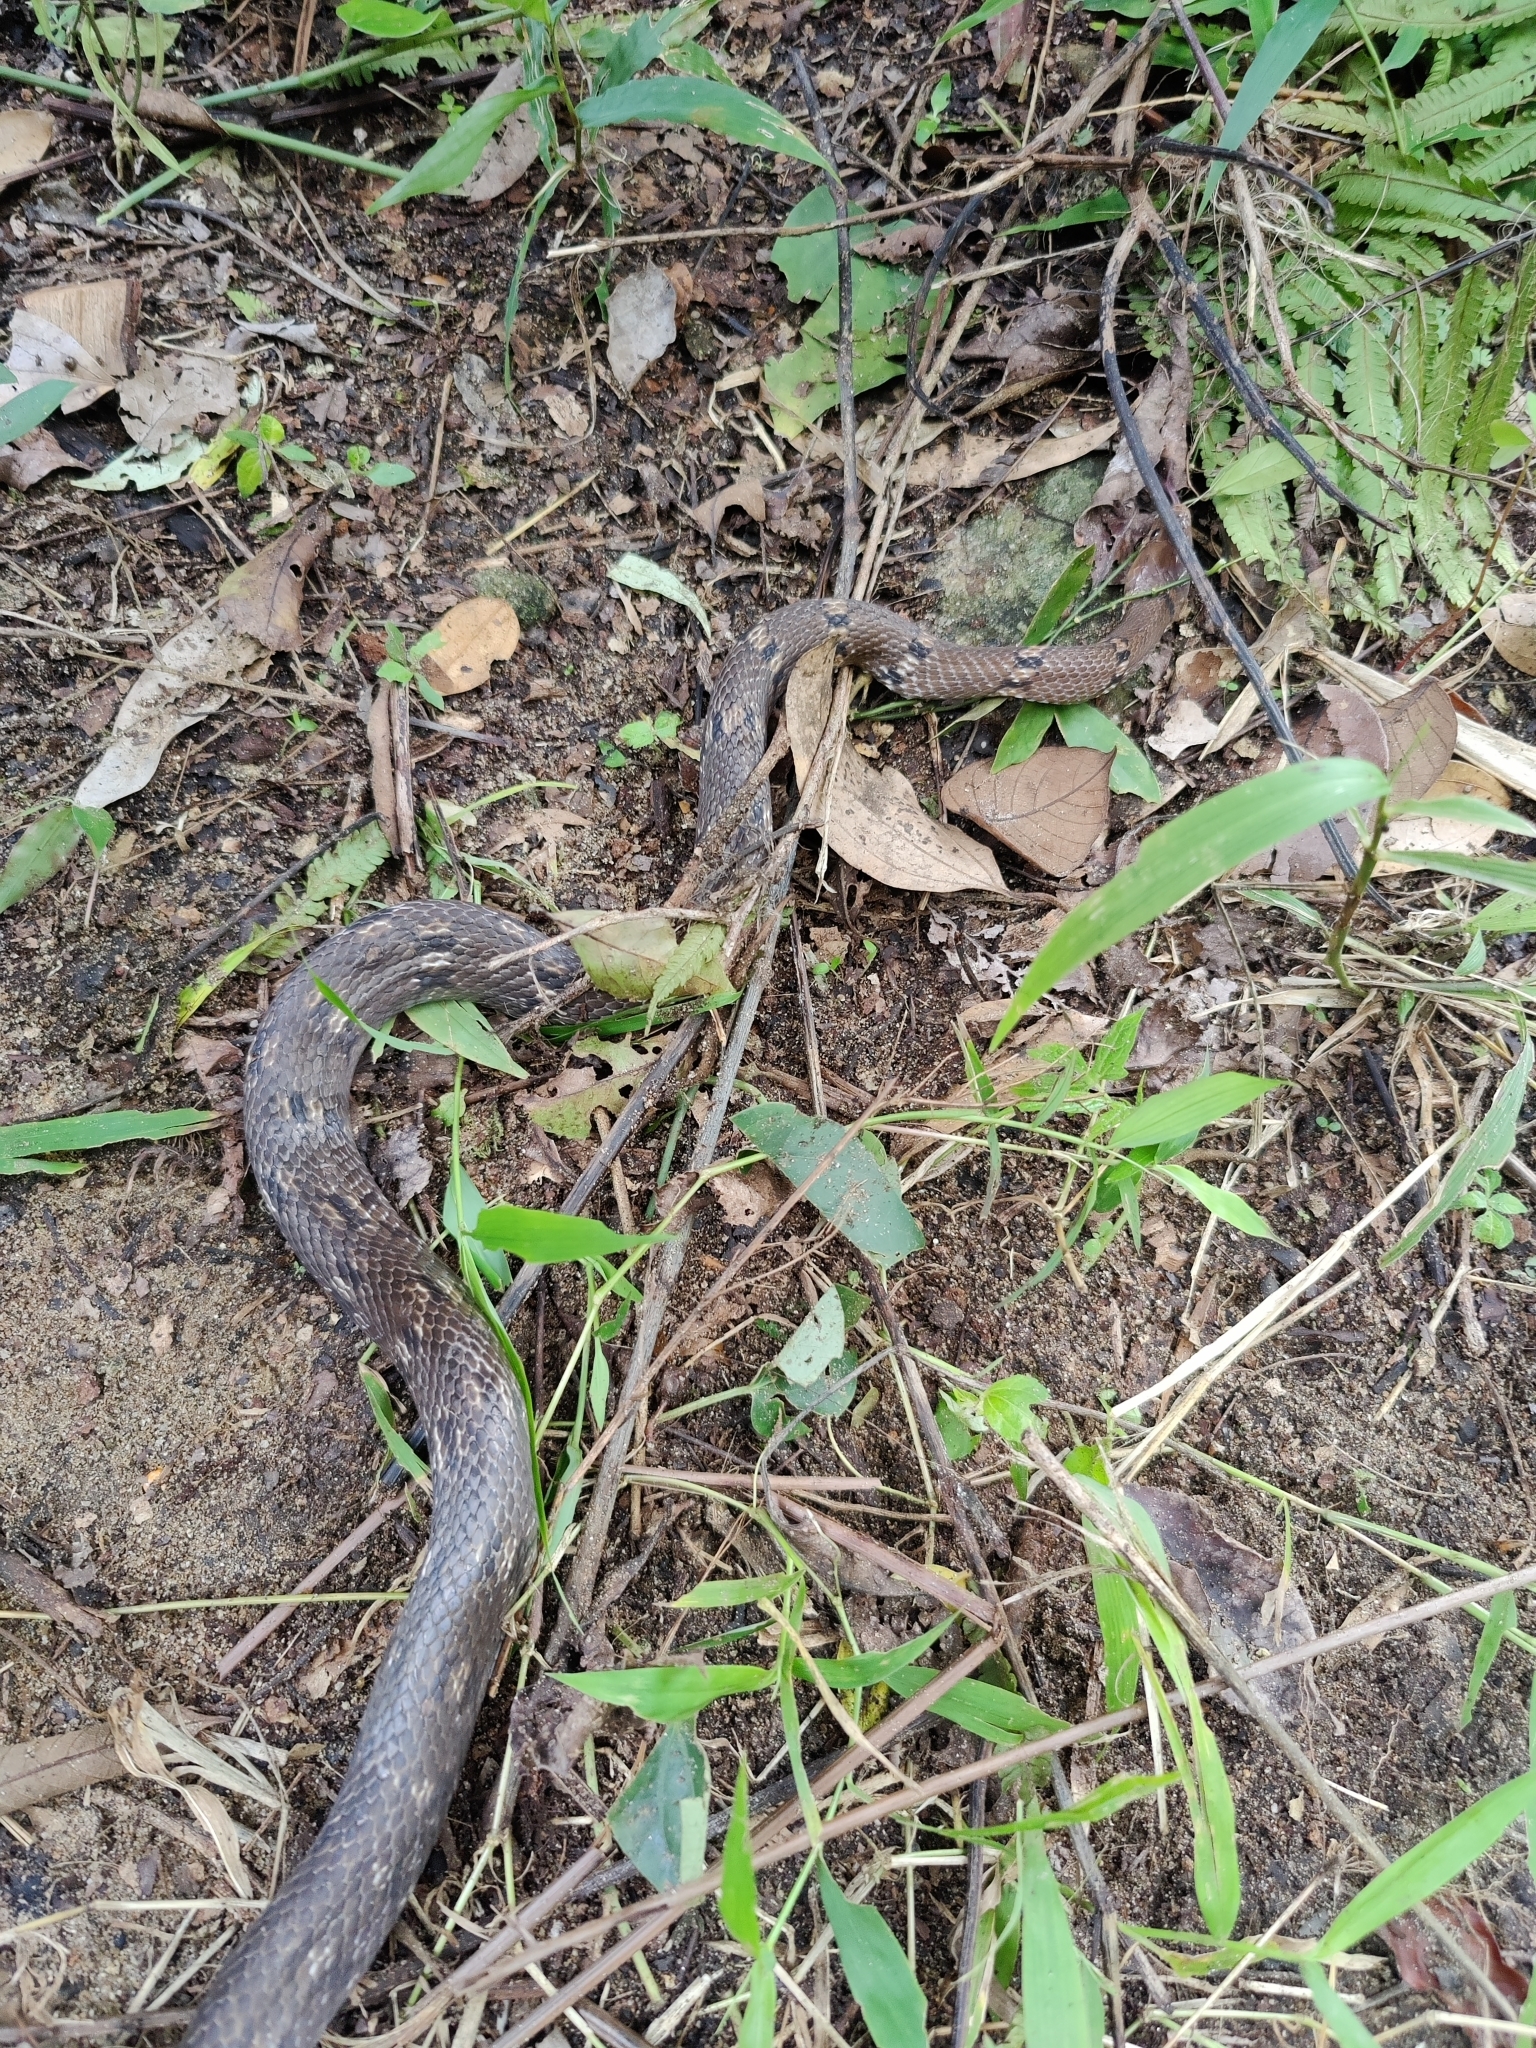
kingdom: Animalia
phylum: Chordata
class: Squamata
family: Colubridae
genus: Coelognathus
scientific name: Coelognathus helena
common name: Trinket snake
